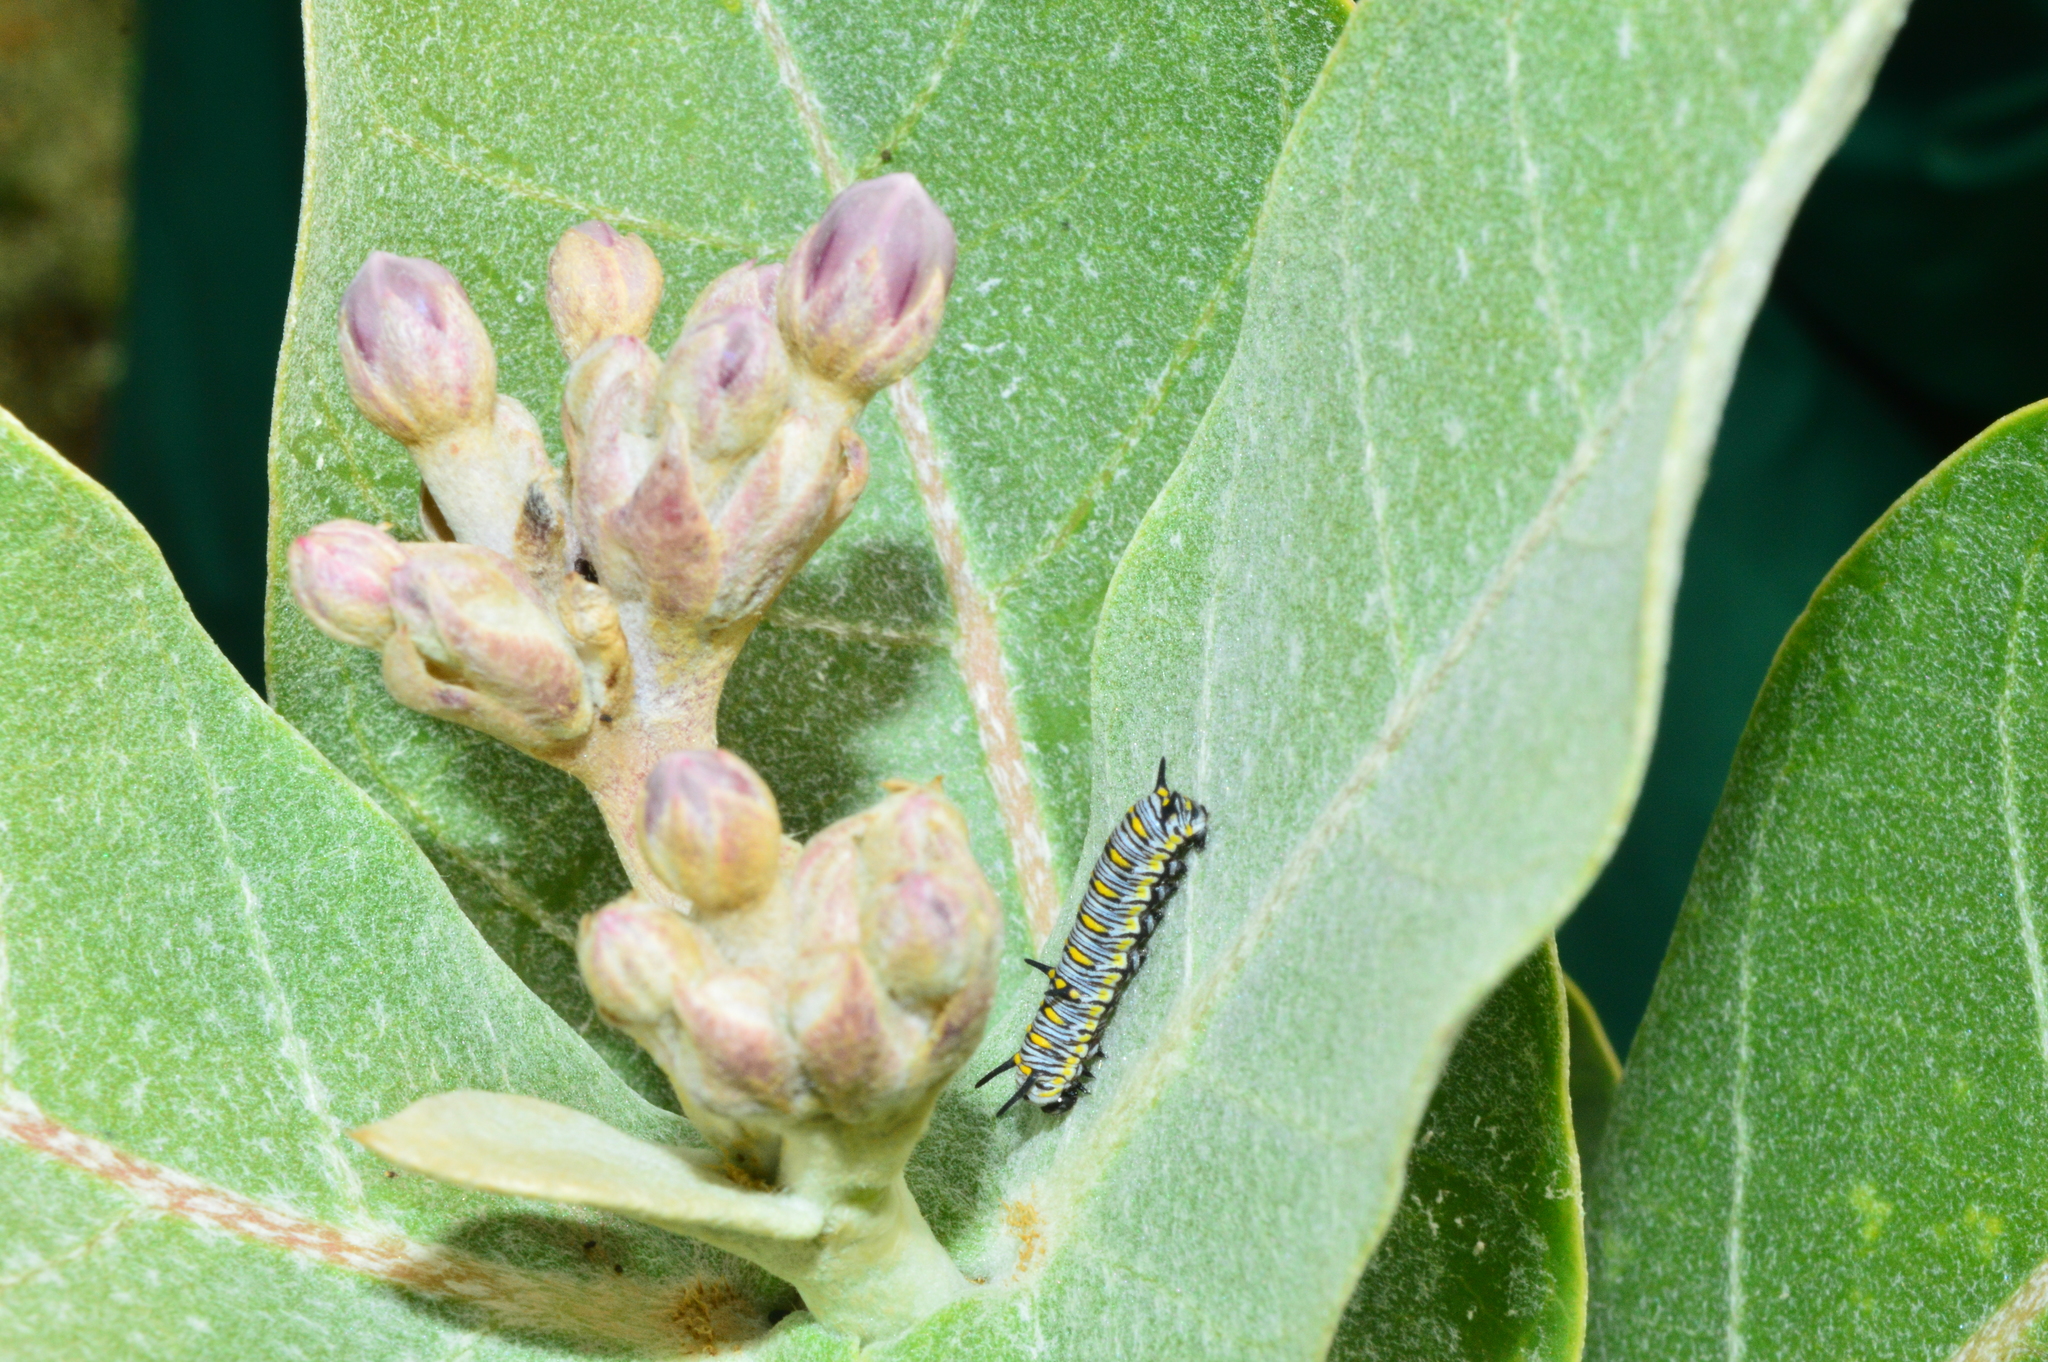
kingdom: Plantae
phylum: Tracheophyta
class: Magnoliopsida
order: Gentianales
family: Apocynaceae
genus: Calotropis
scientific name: Calotropis gigantea
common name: Crown flower
